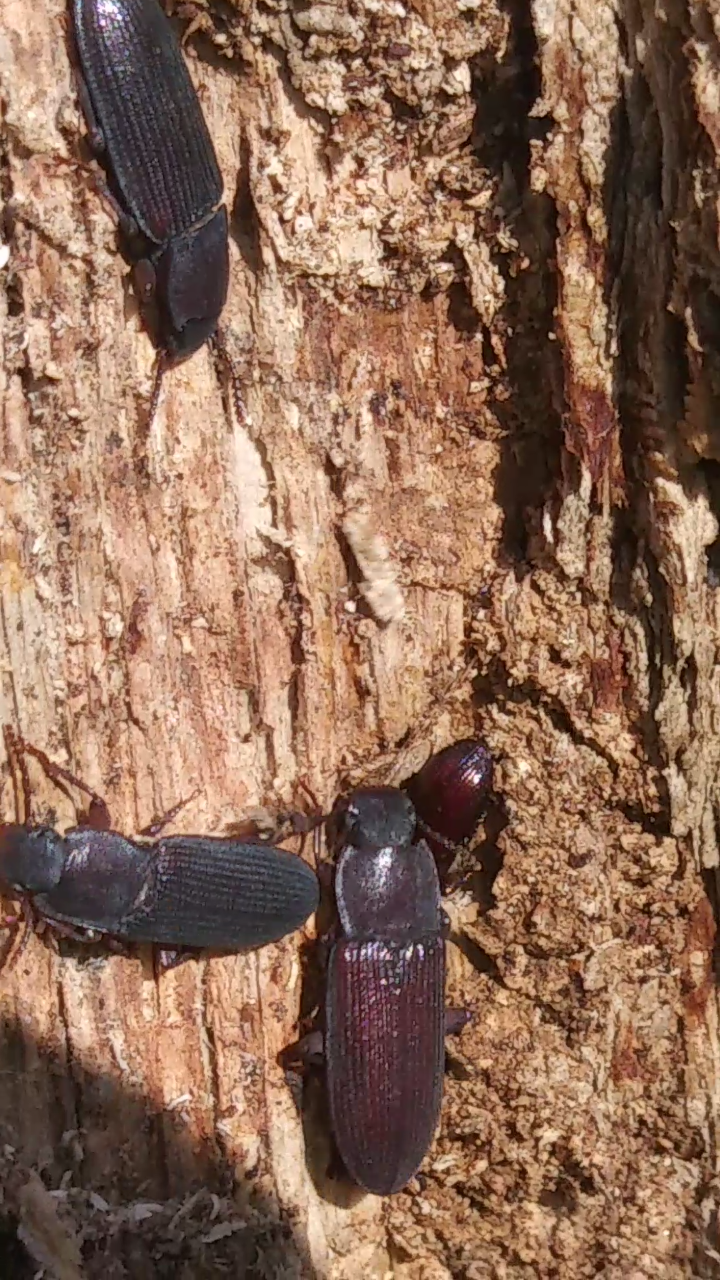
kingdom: Animalia
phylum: Arthropoda
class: Insecta
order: Coleoptera
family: Tenebrionidae
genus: Idiobates
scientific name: Idiobates castaneus
